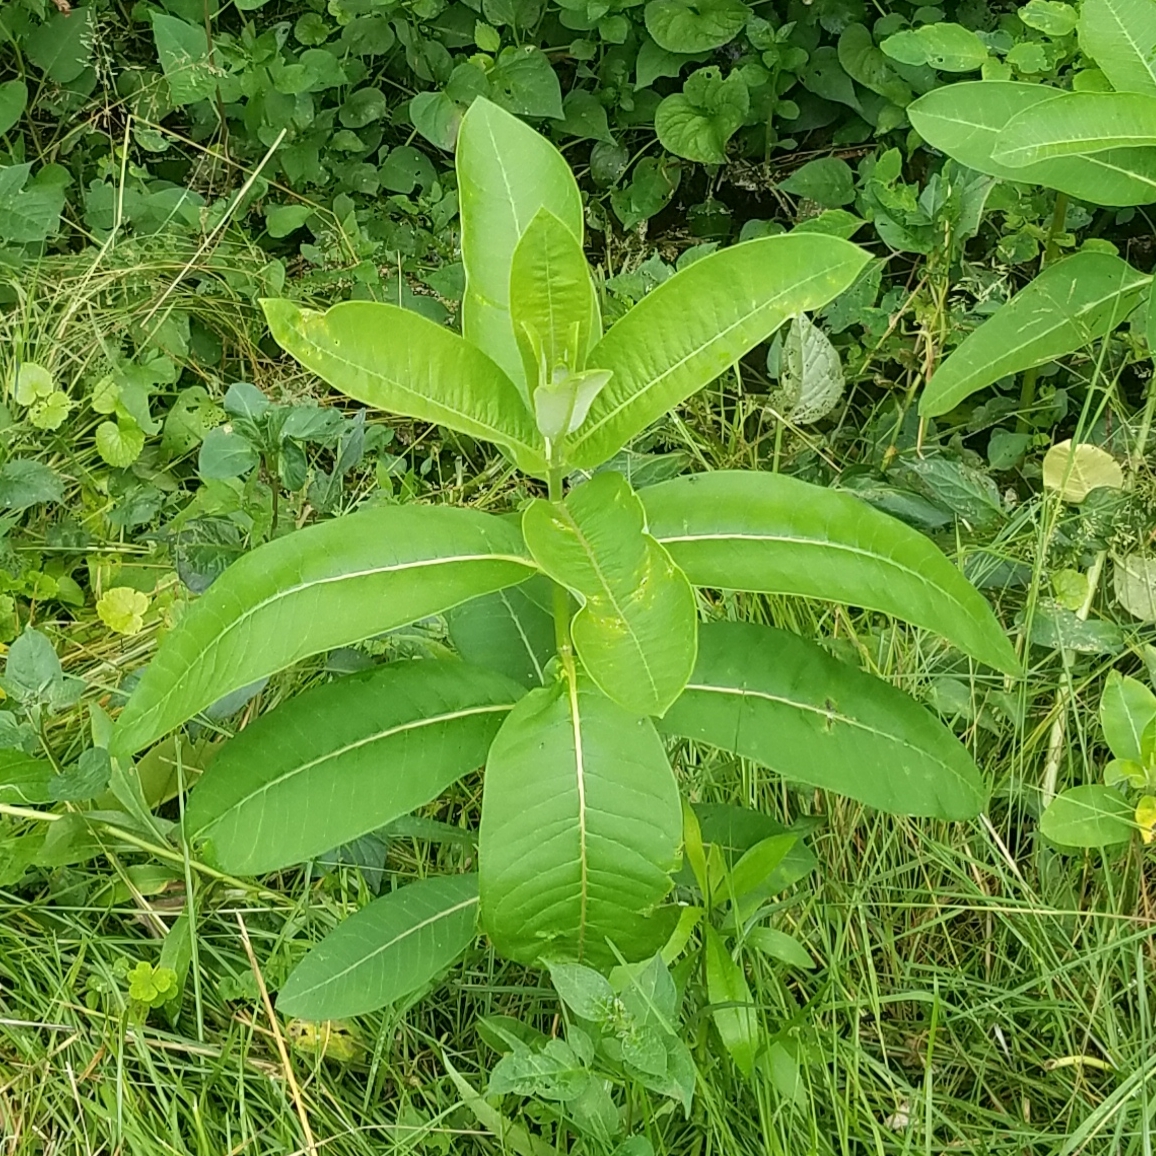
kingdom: Plantae
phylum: Tracheophyta
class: Magnoliopsida
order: Gentianales
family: Apocynaceae
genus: Asclepias
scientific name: Asclepias syriaca
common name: Common milkweed
